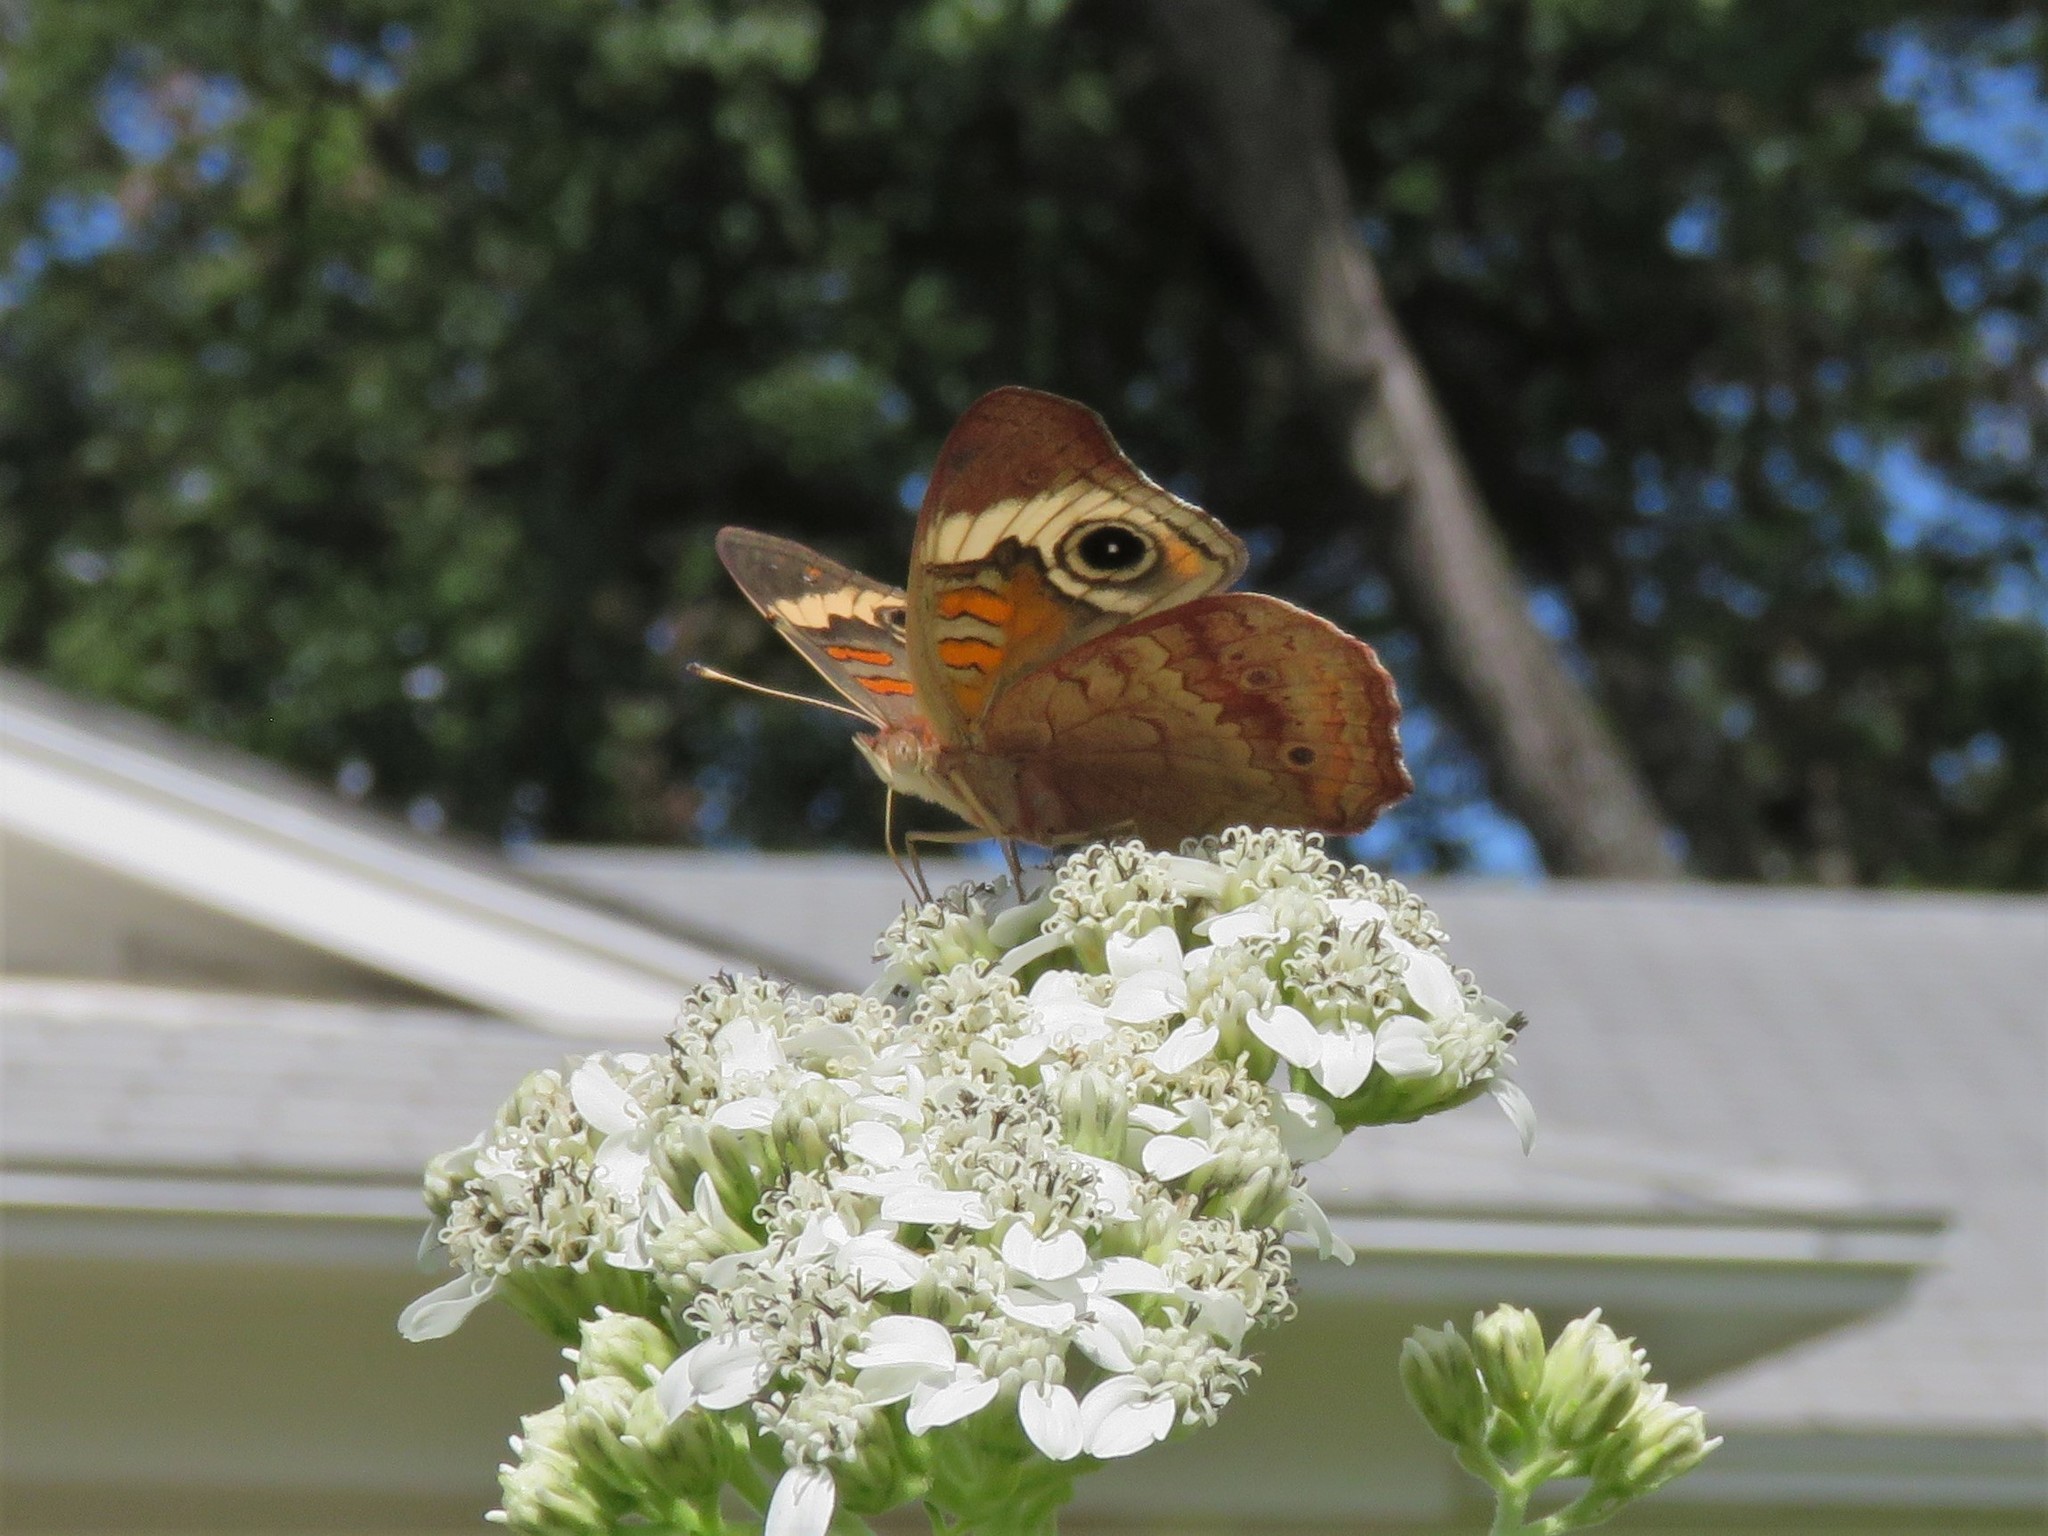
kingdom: Animalia
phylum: Arthropoda
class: Insecta
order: Lepidoptera
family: Nymphalidae
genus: Junonia
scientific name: Junonia coenia
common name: Common buckeye
